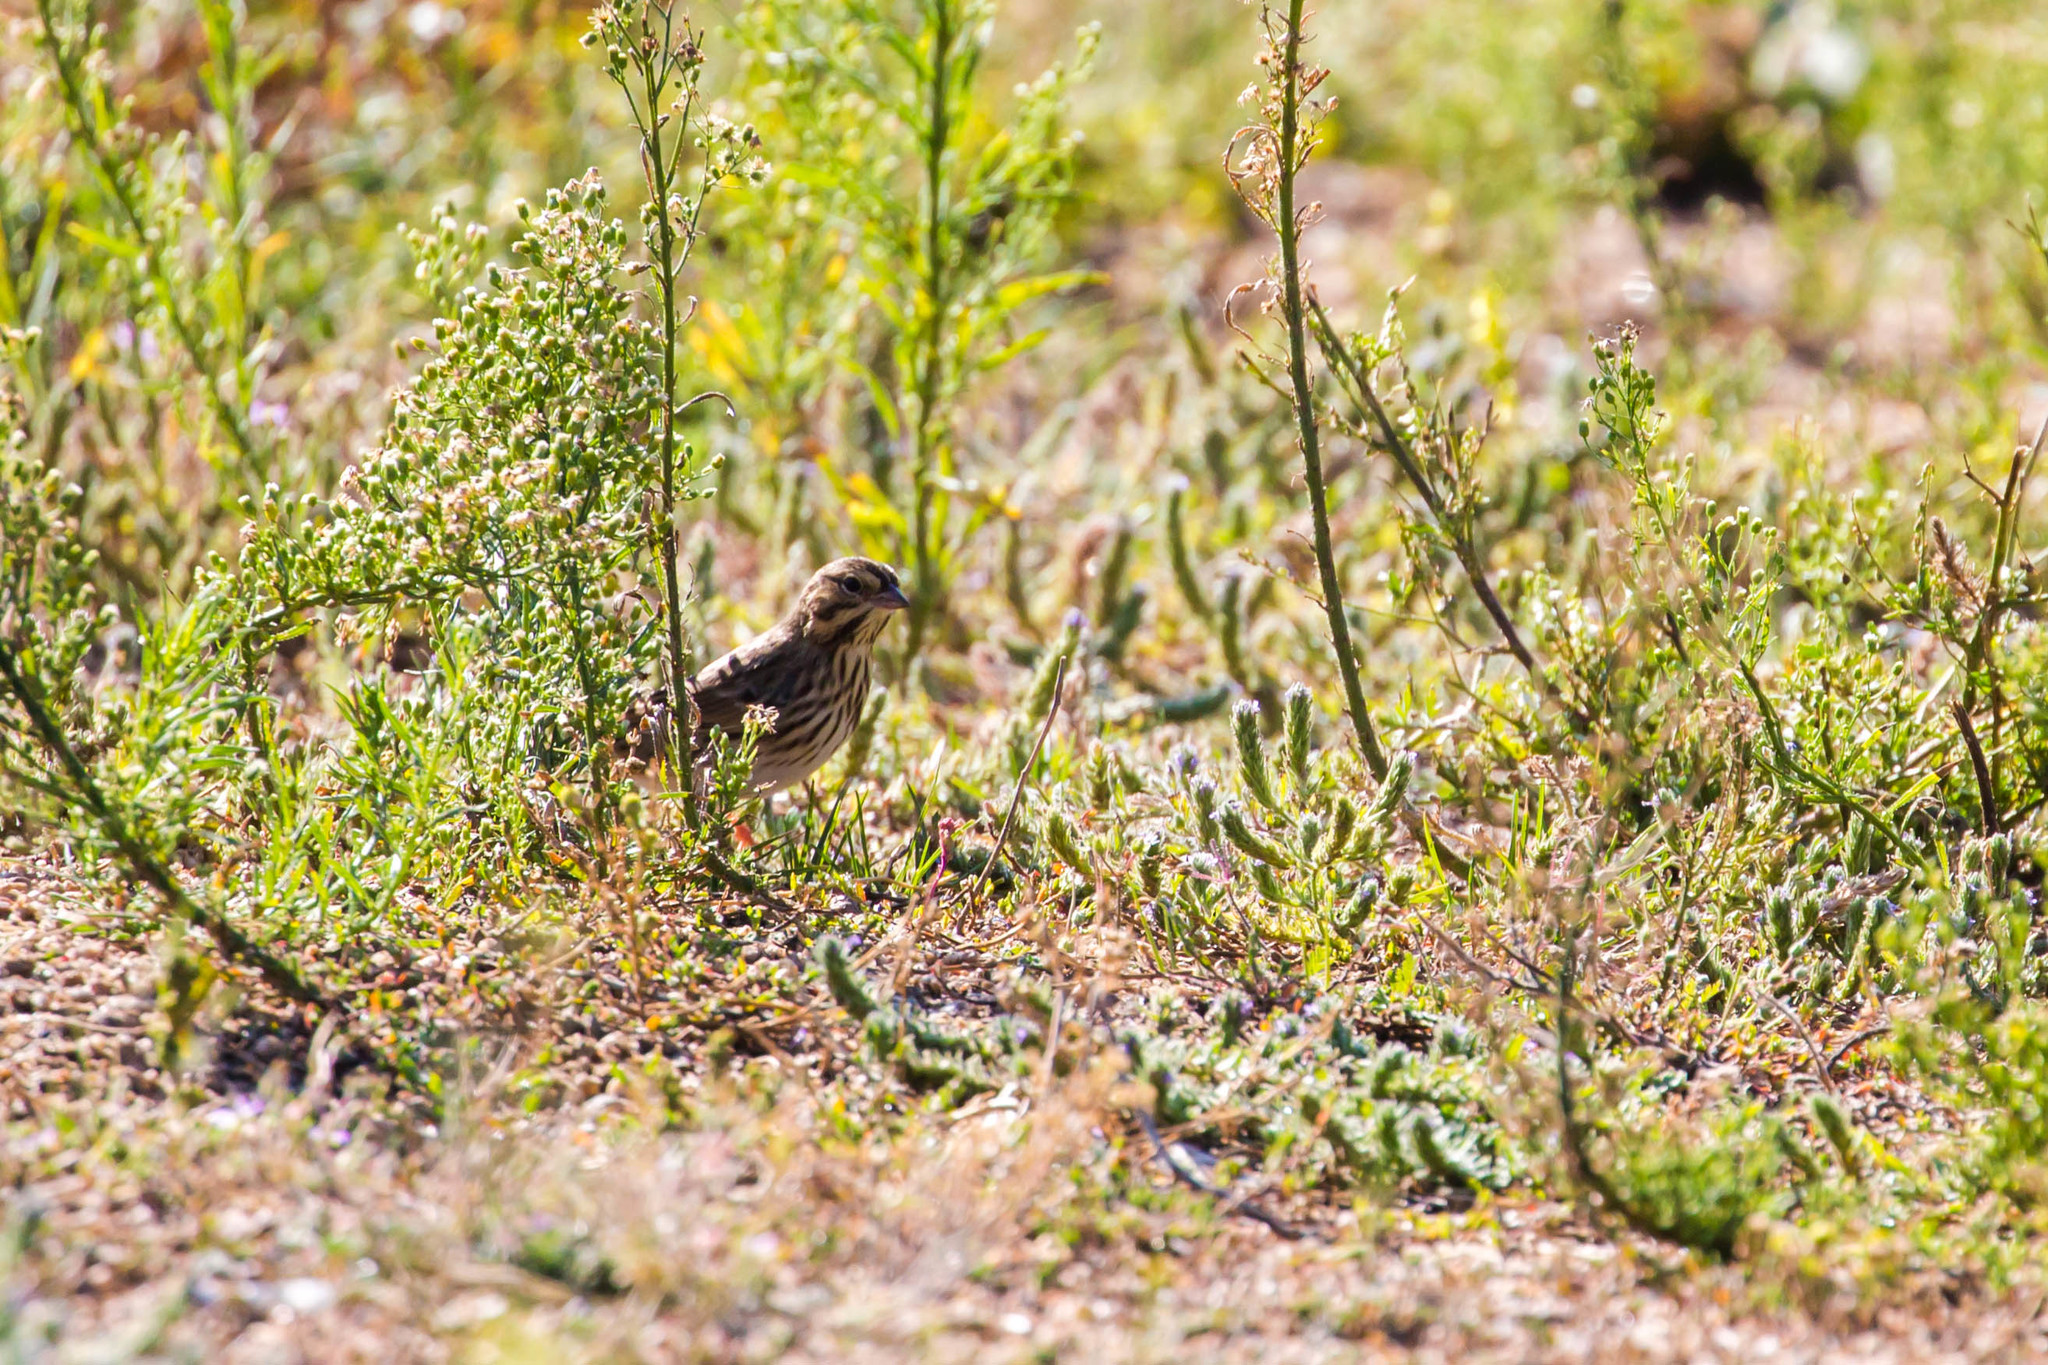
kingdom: Animalia
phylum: Chordata
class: Aves
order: Passeriformes
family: Passerellidae
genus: Passerculus
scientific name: Passerculus sandwichensis
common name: Savannah sparrow
